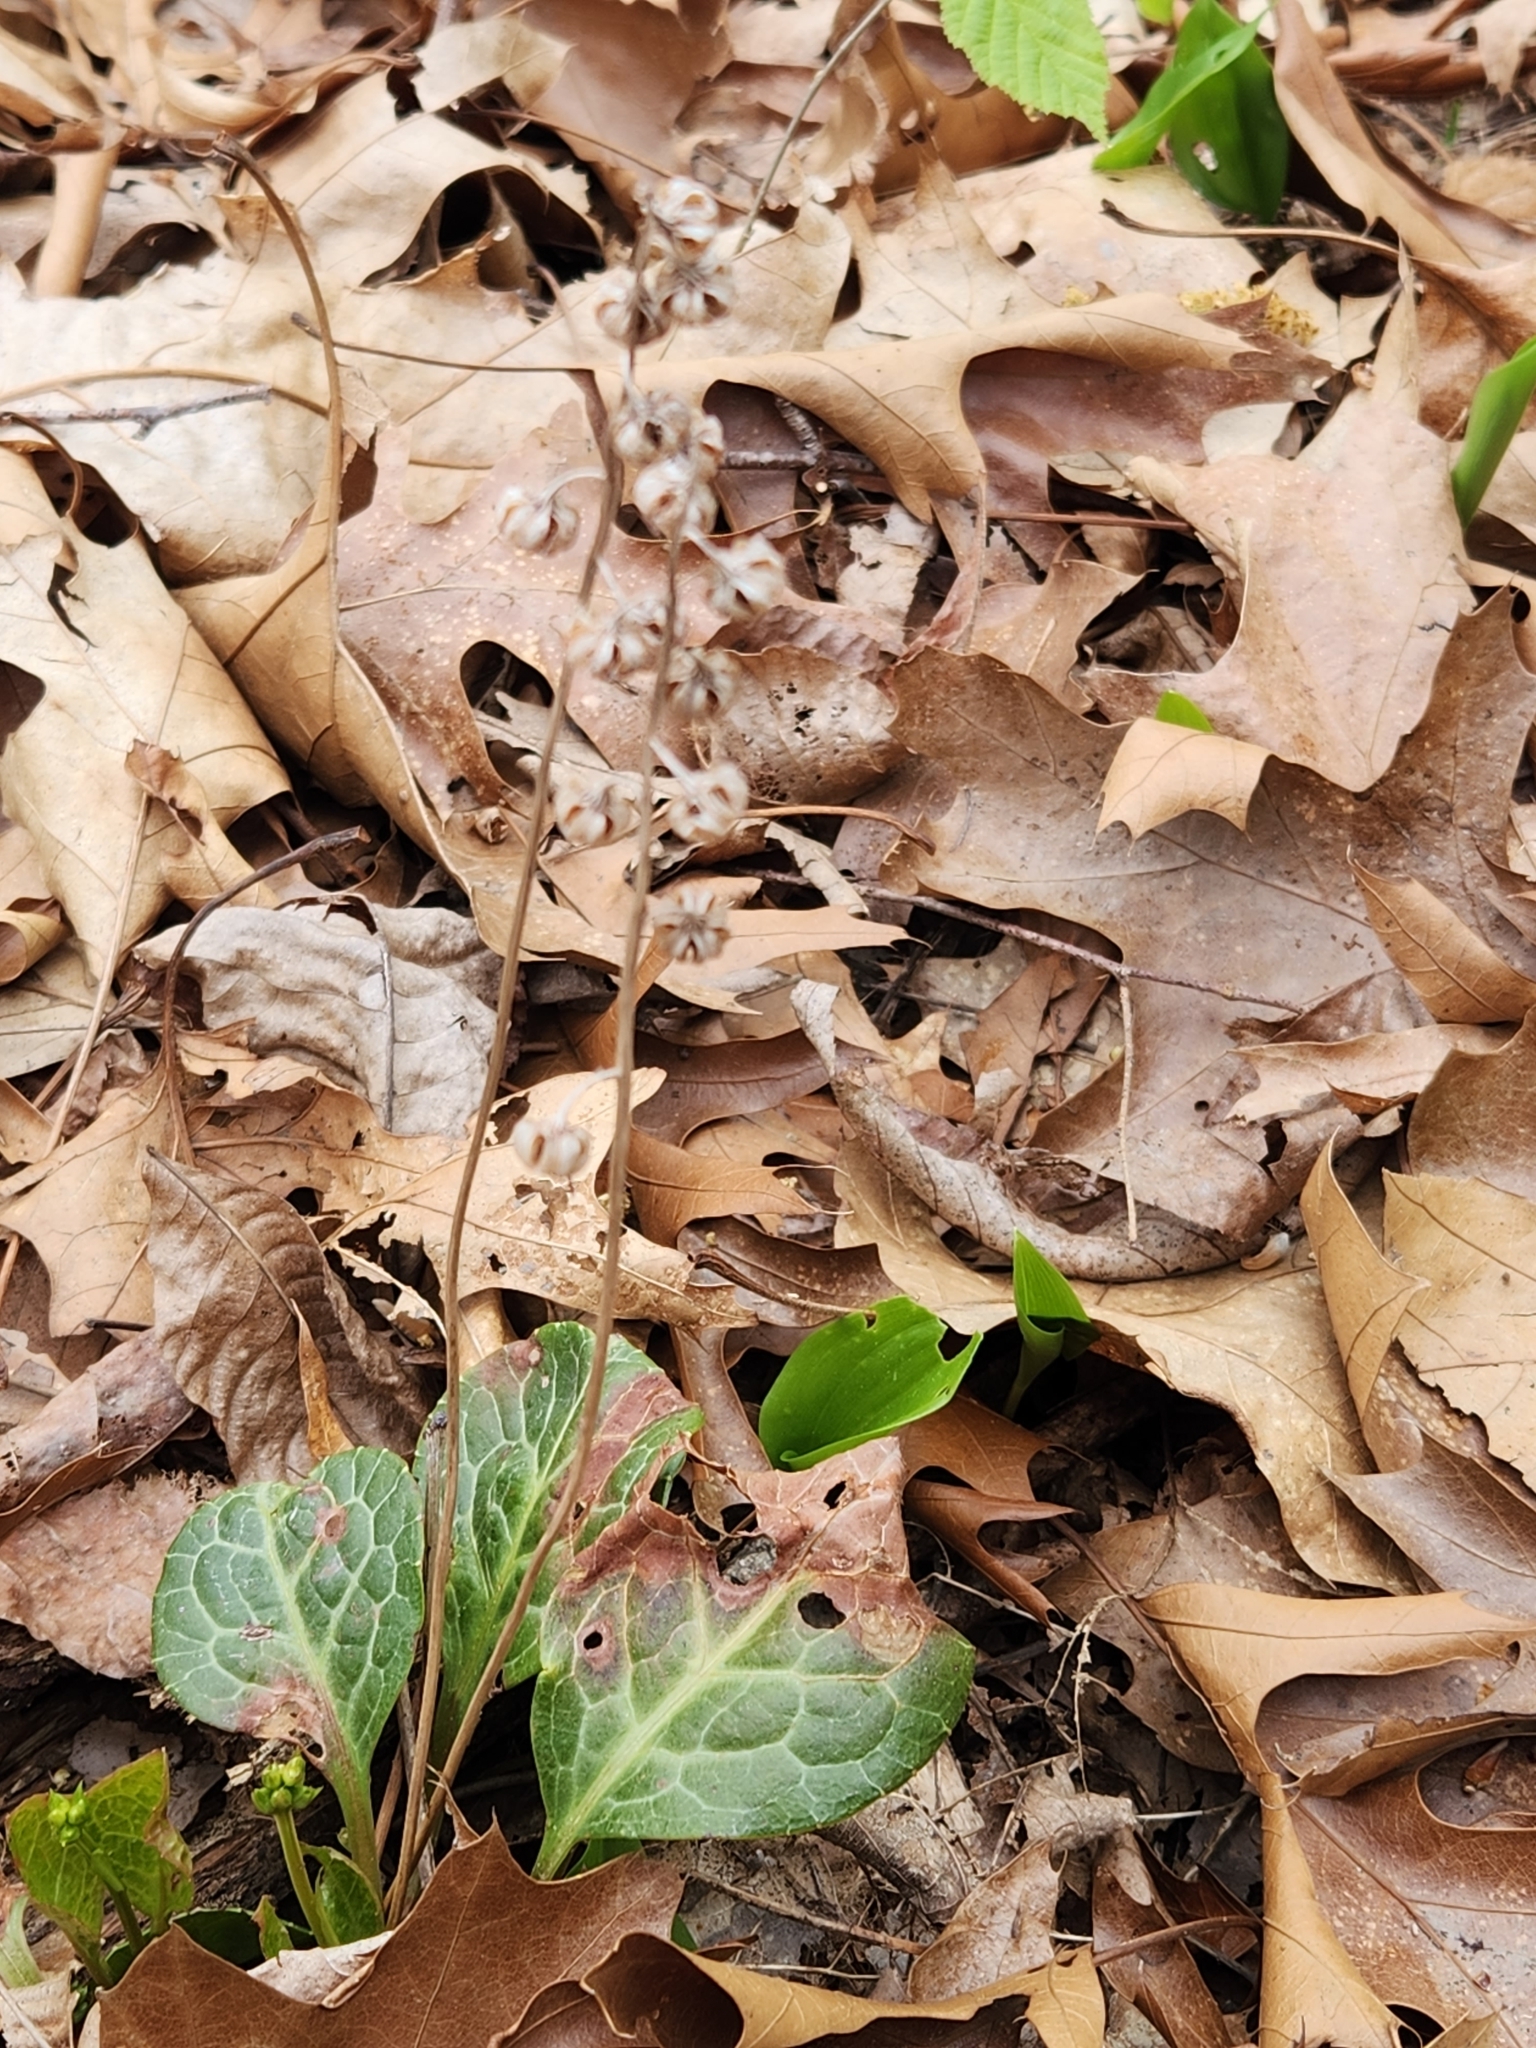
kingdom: Plantae
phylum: Tracheophyta
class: Magnoliopsida
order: Ericales
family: Ericaceae
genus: Pyrola
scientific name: Pyrola americana
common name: American wintergreen
